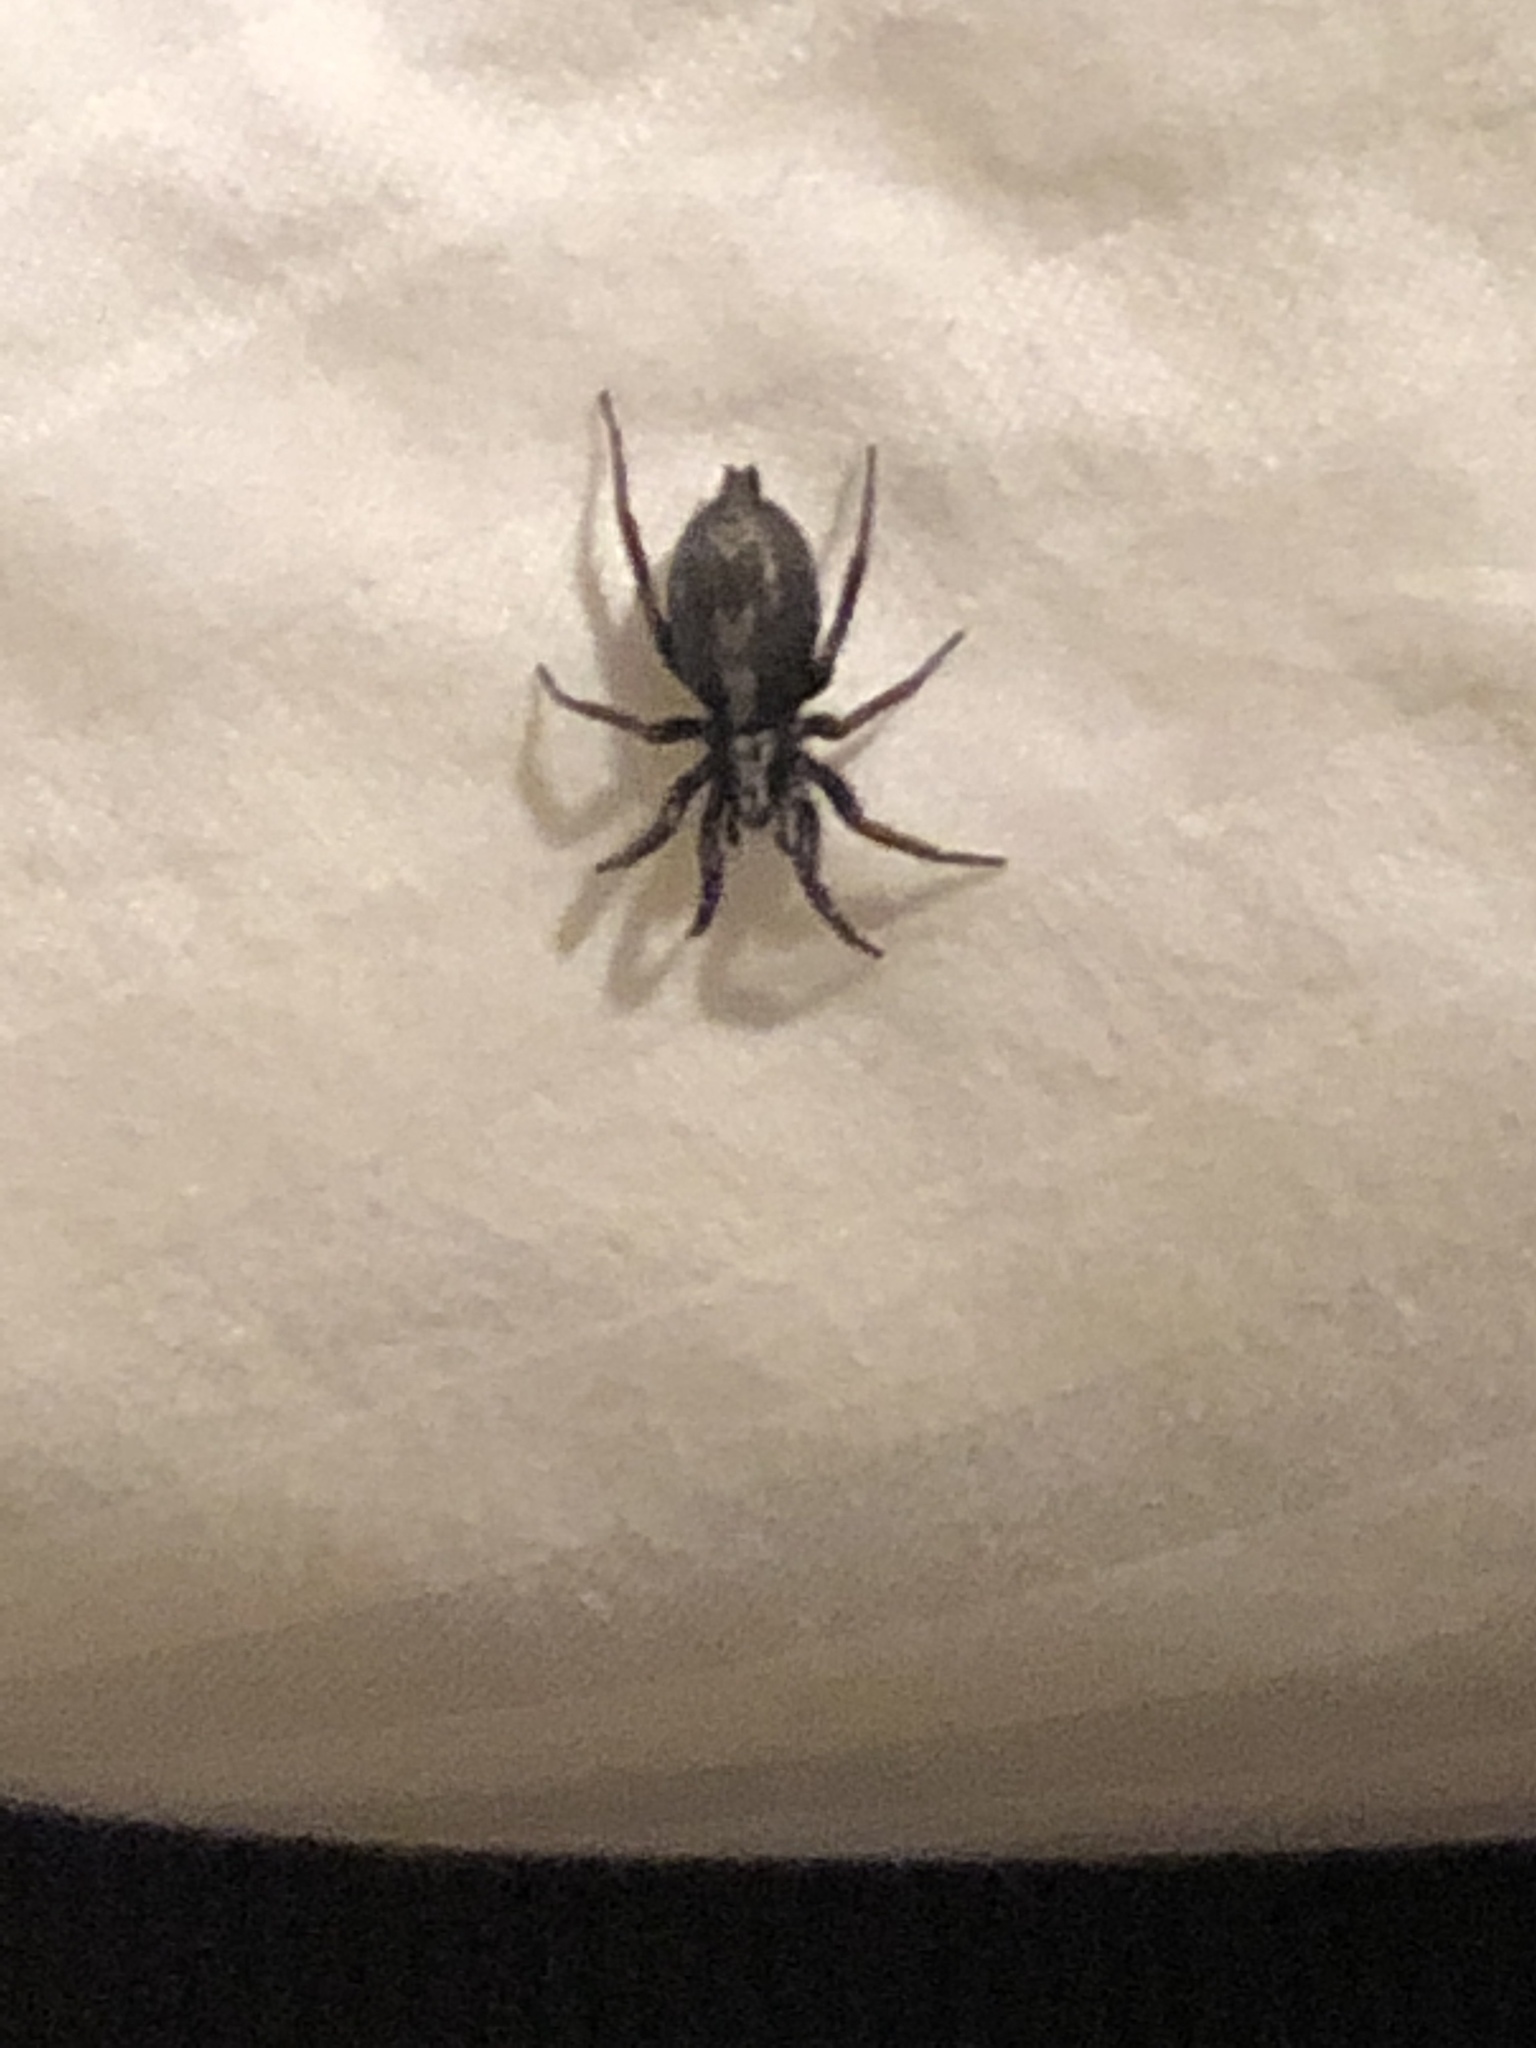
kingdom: Animalia
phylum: Arthropoda
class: Arachnida
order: Araneae
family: Gnaphosidae
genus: Herpyllus
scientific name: Herpyllus ecclesiasticus
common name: Eastern parson spider
